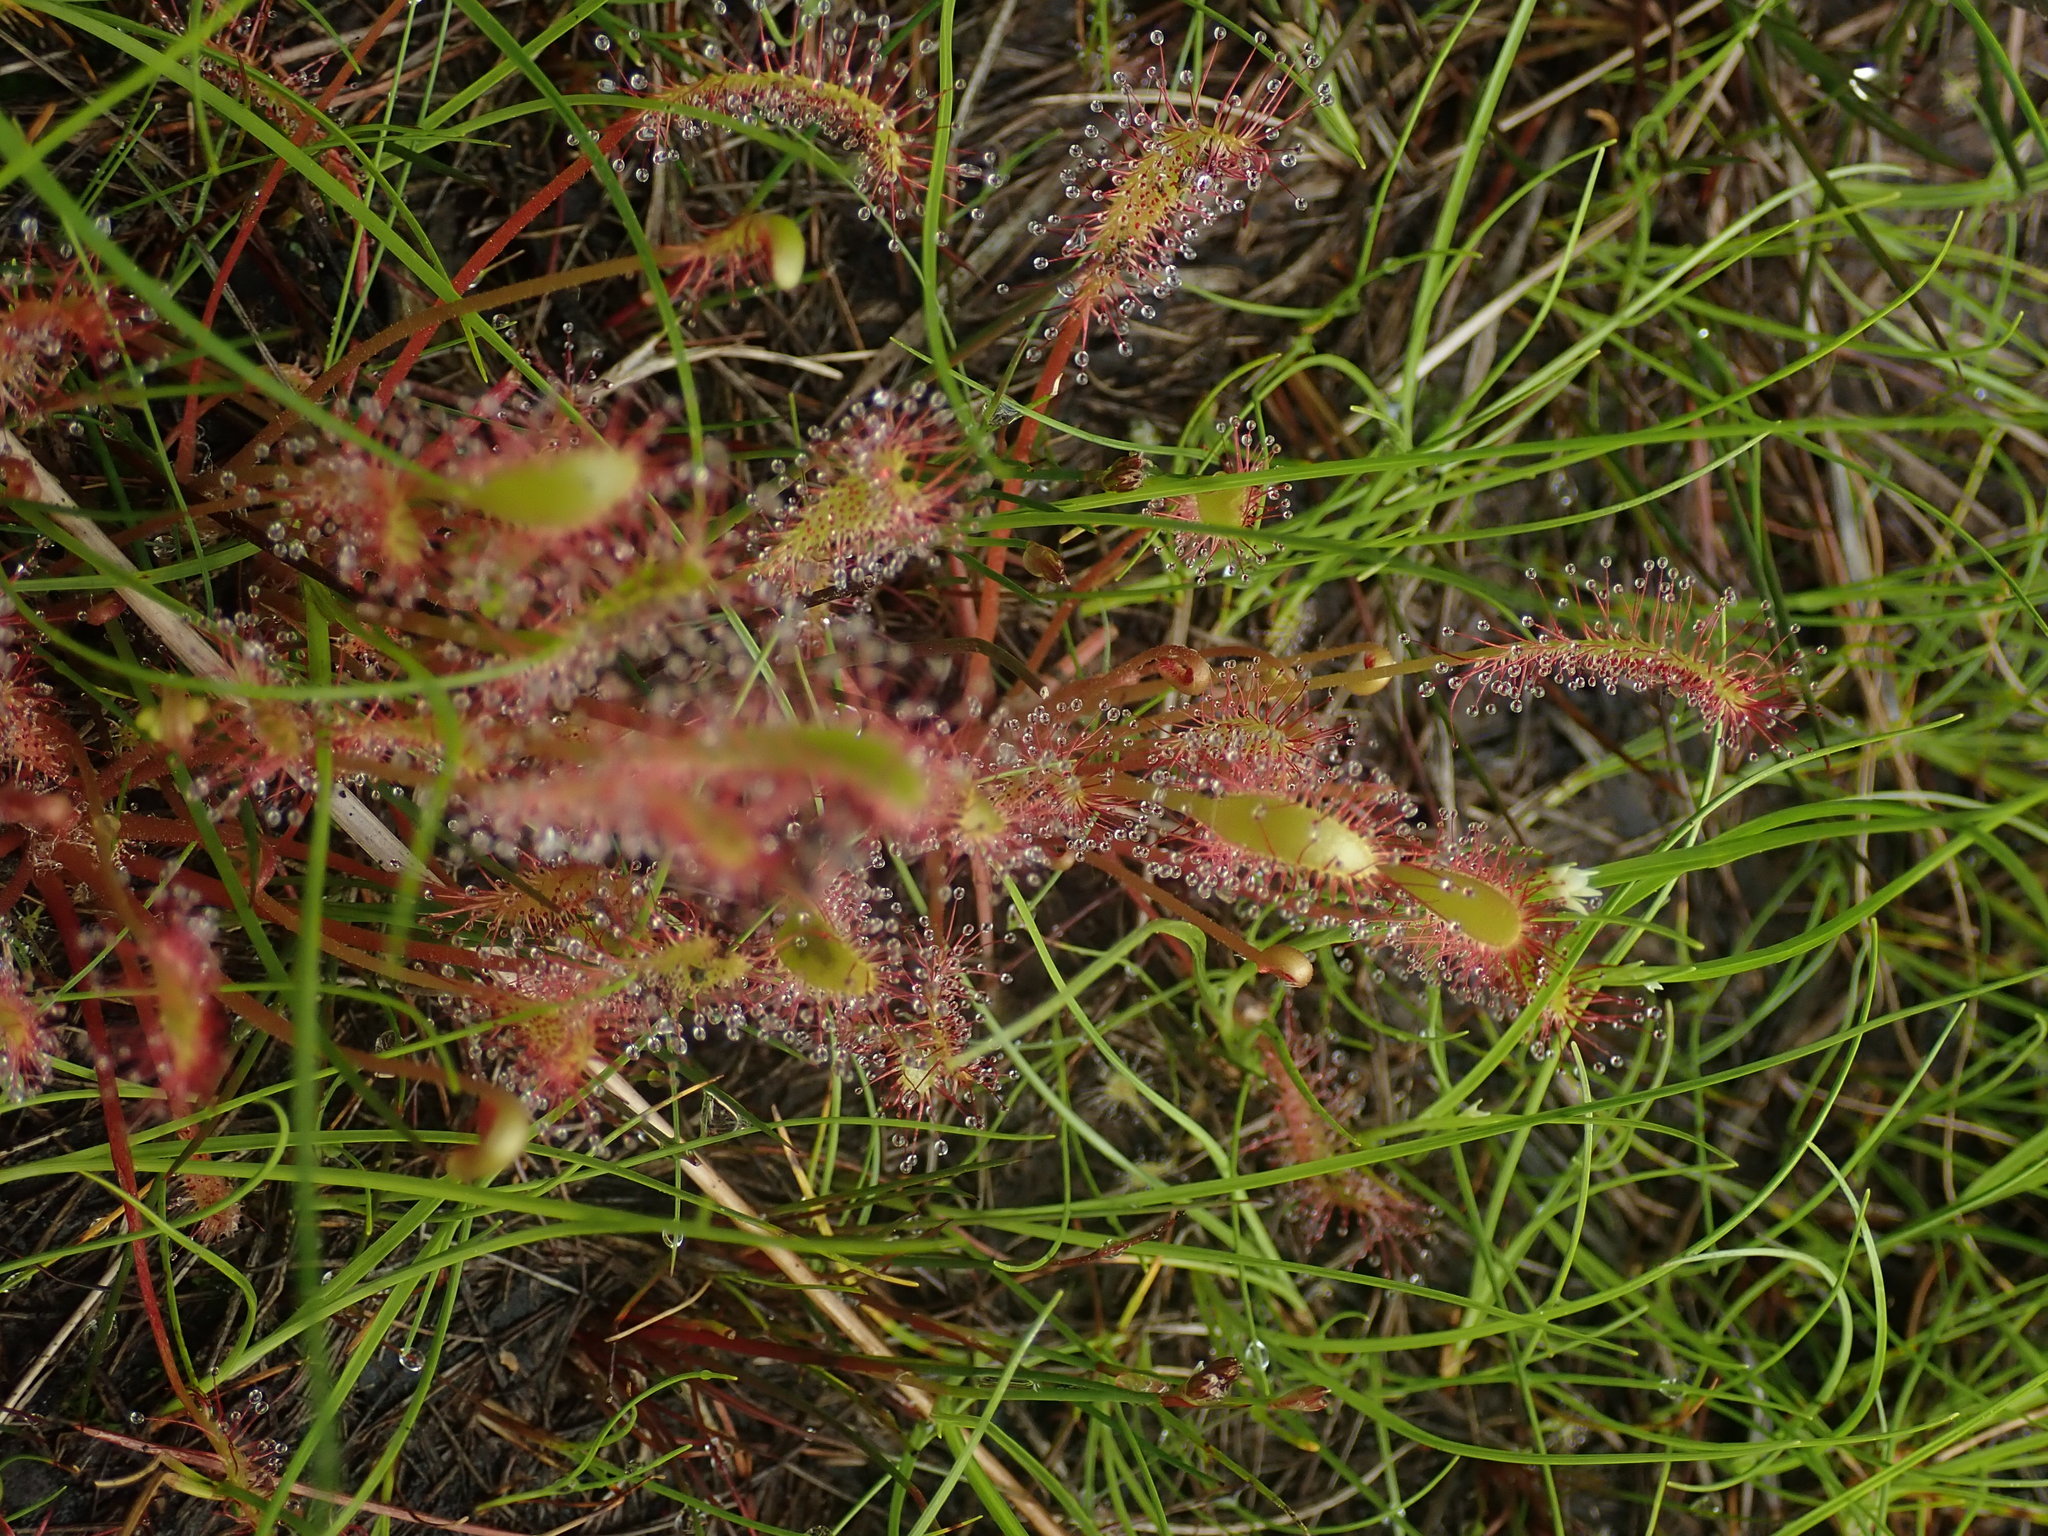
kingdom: Plantae
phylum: Tracheophyta
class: Magnoliopsida
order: Caryophyllales
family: Droseraceae
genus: Drosera
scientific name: Drosera anglica
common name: Great sundew
